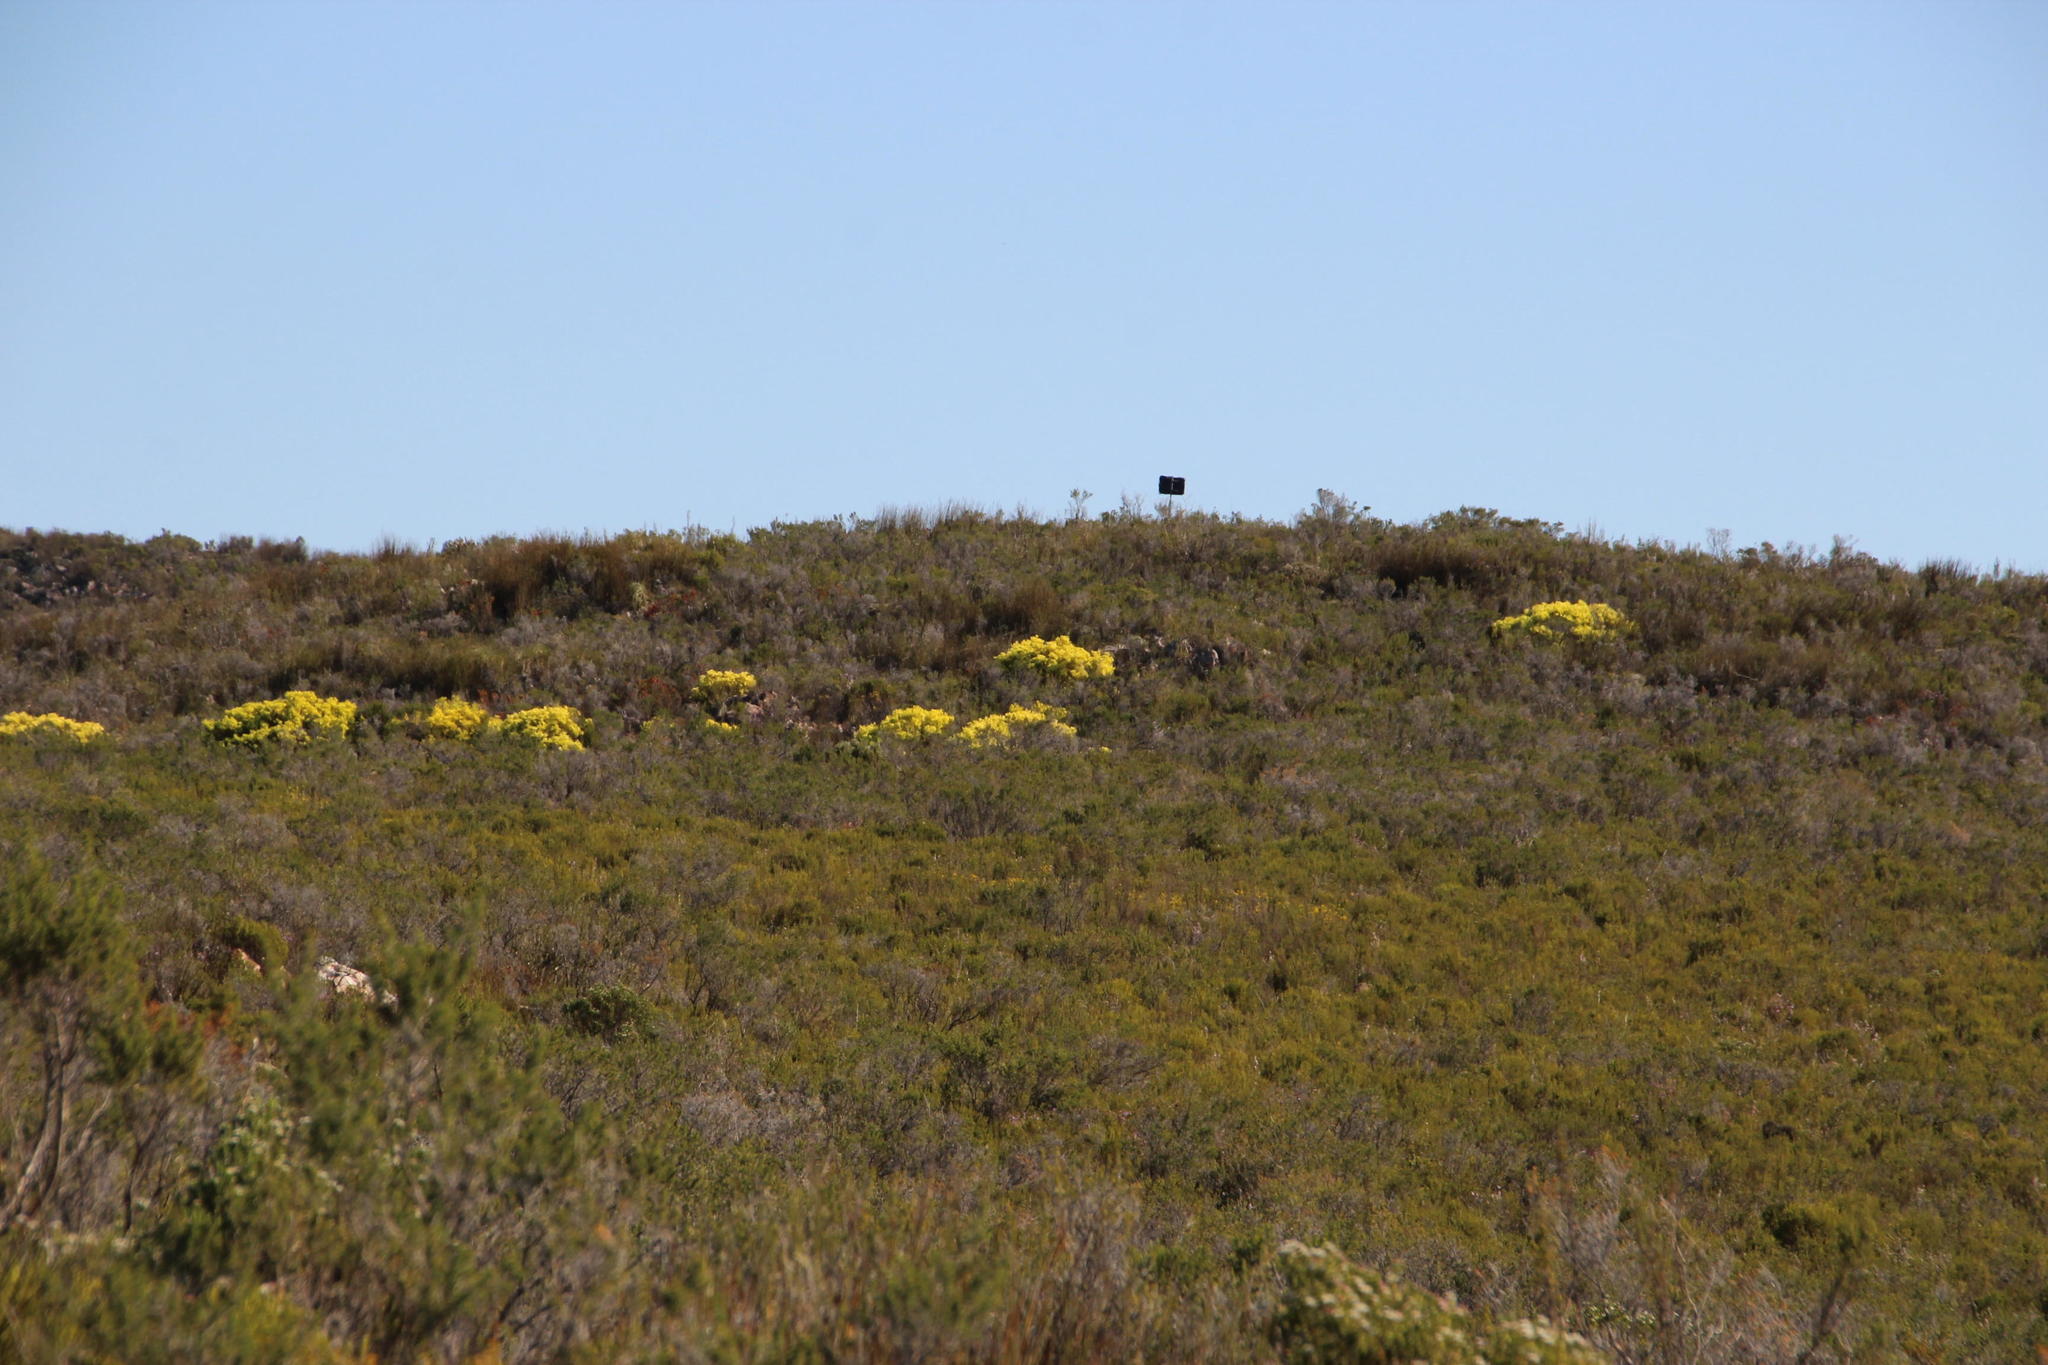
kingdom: Plantae
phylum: Tracheophyta
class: Magnoliopsida
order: Proteales
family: Proteaceae
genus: Leucadendron
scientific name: Leucadendron salignum
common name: Common sunshine conebush
